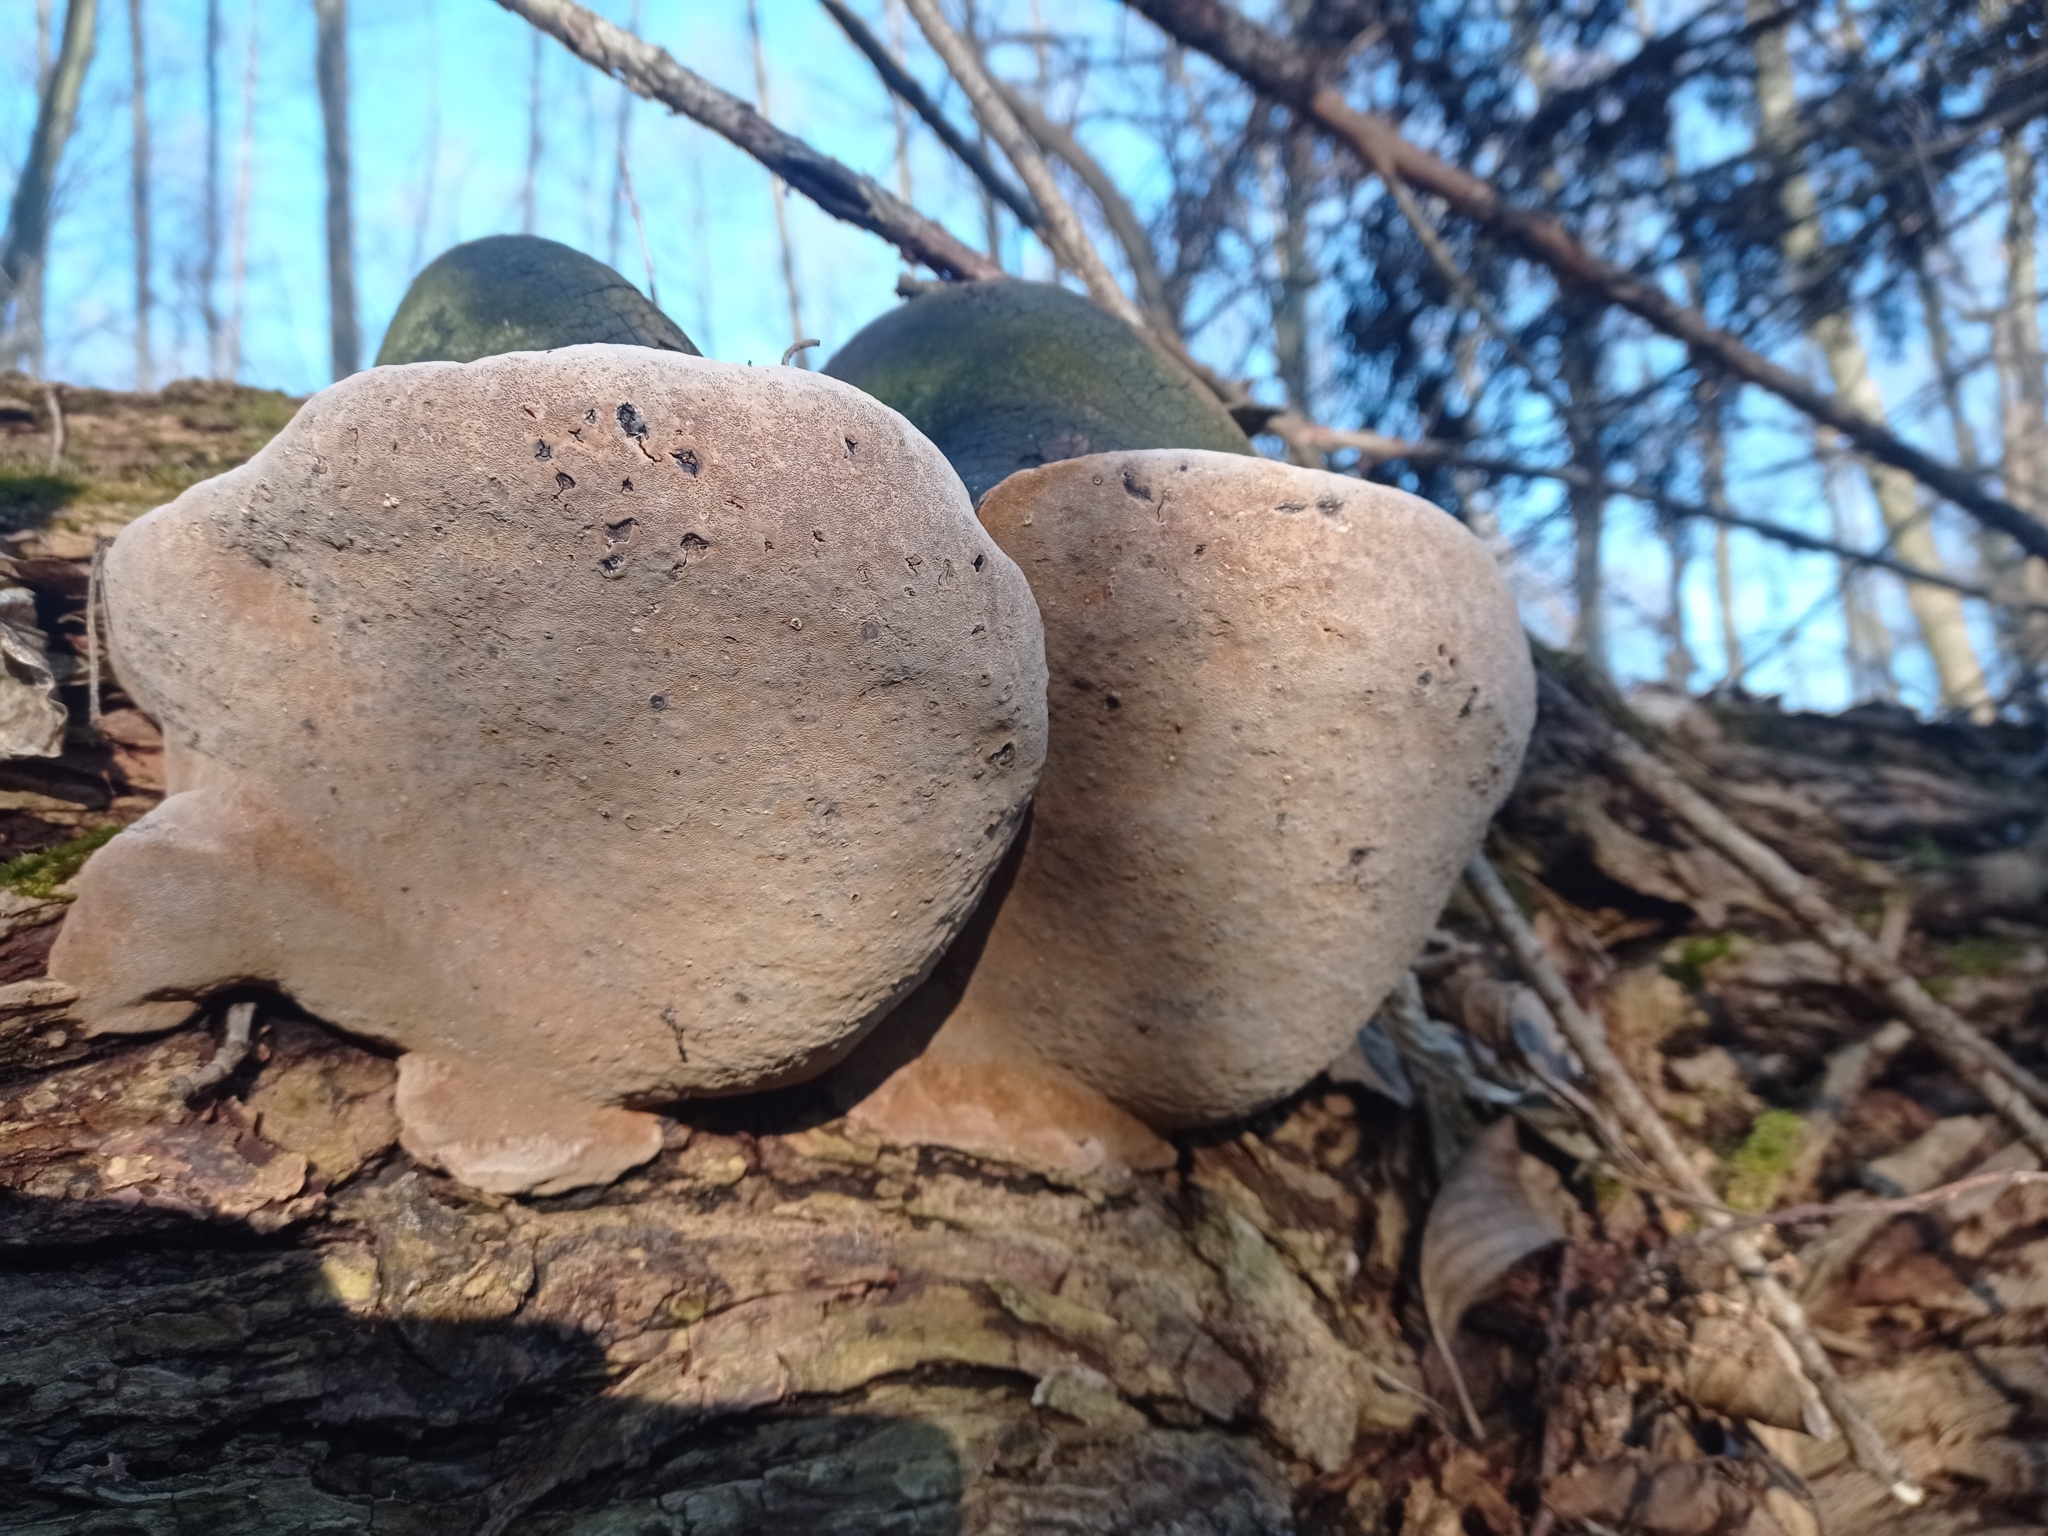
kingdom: Fungi
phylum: Basidiomycota
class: Agaricomycetes
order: Hymenochaetales
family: Hymenochaetaceae
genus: Phellinus
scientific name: Phellinus igniarius
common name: Willow bracket
